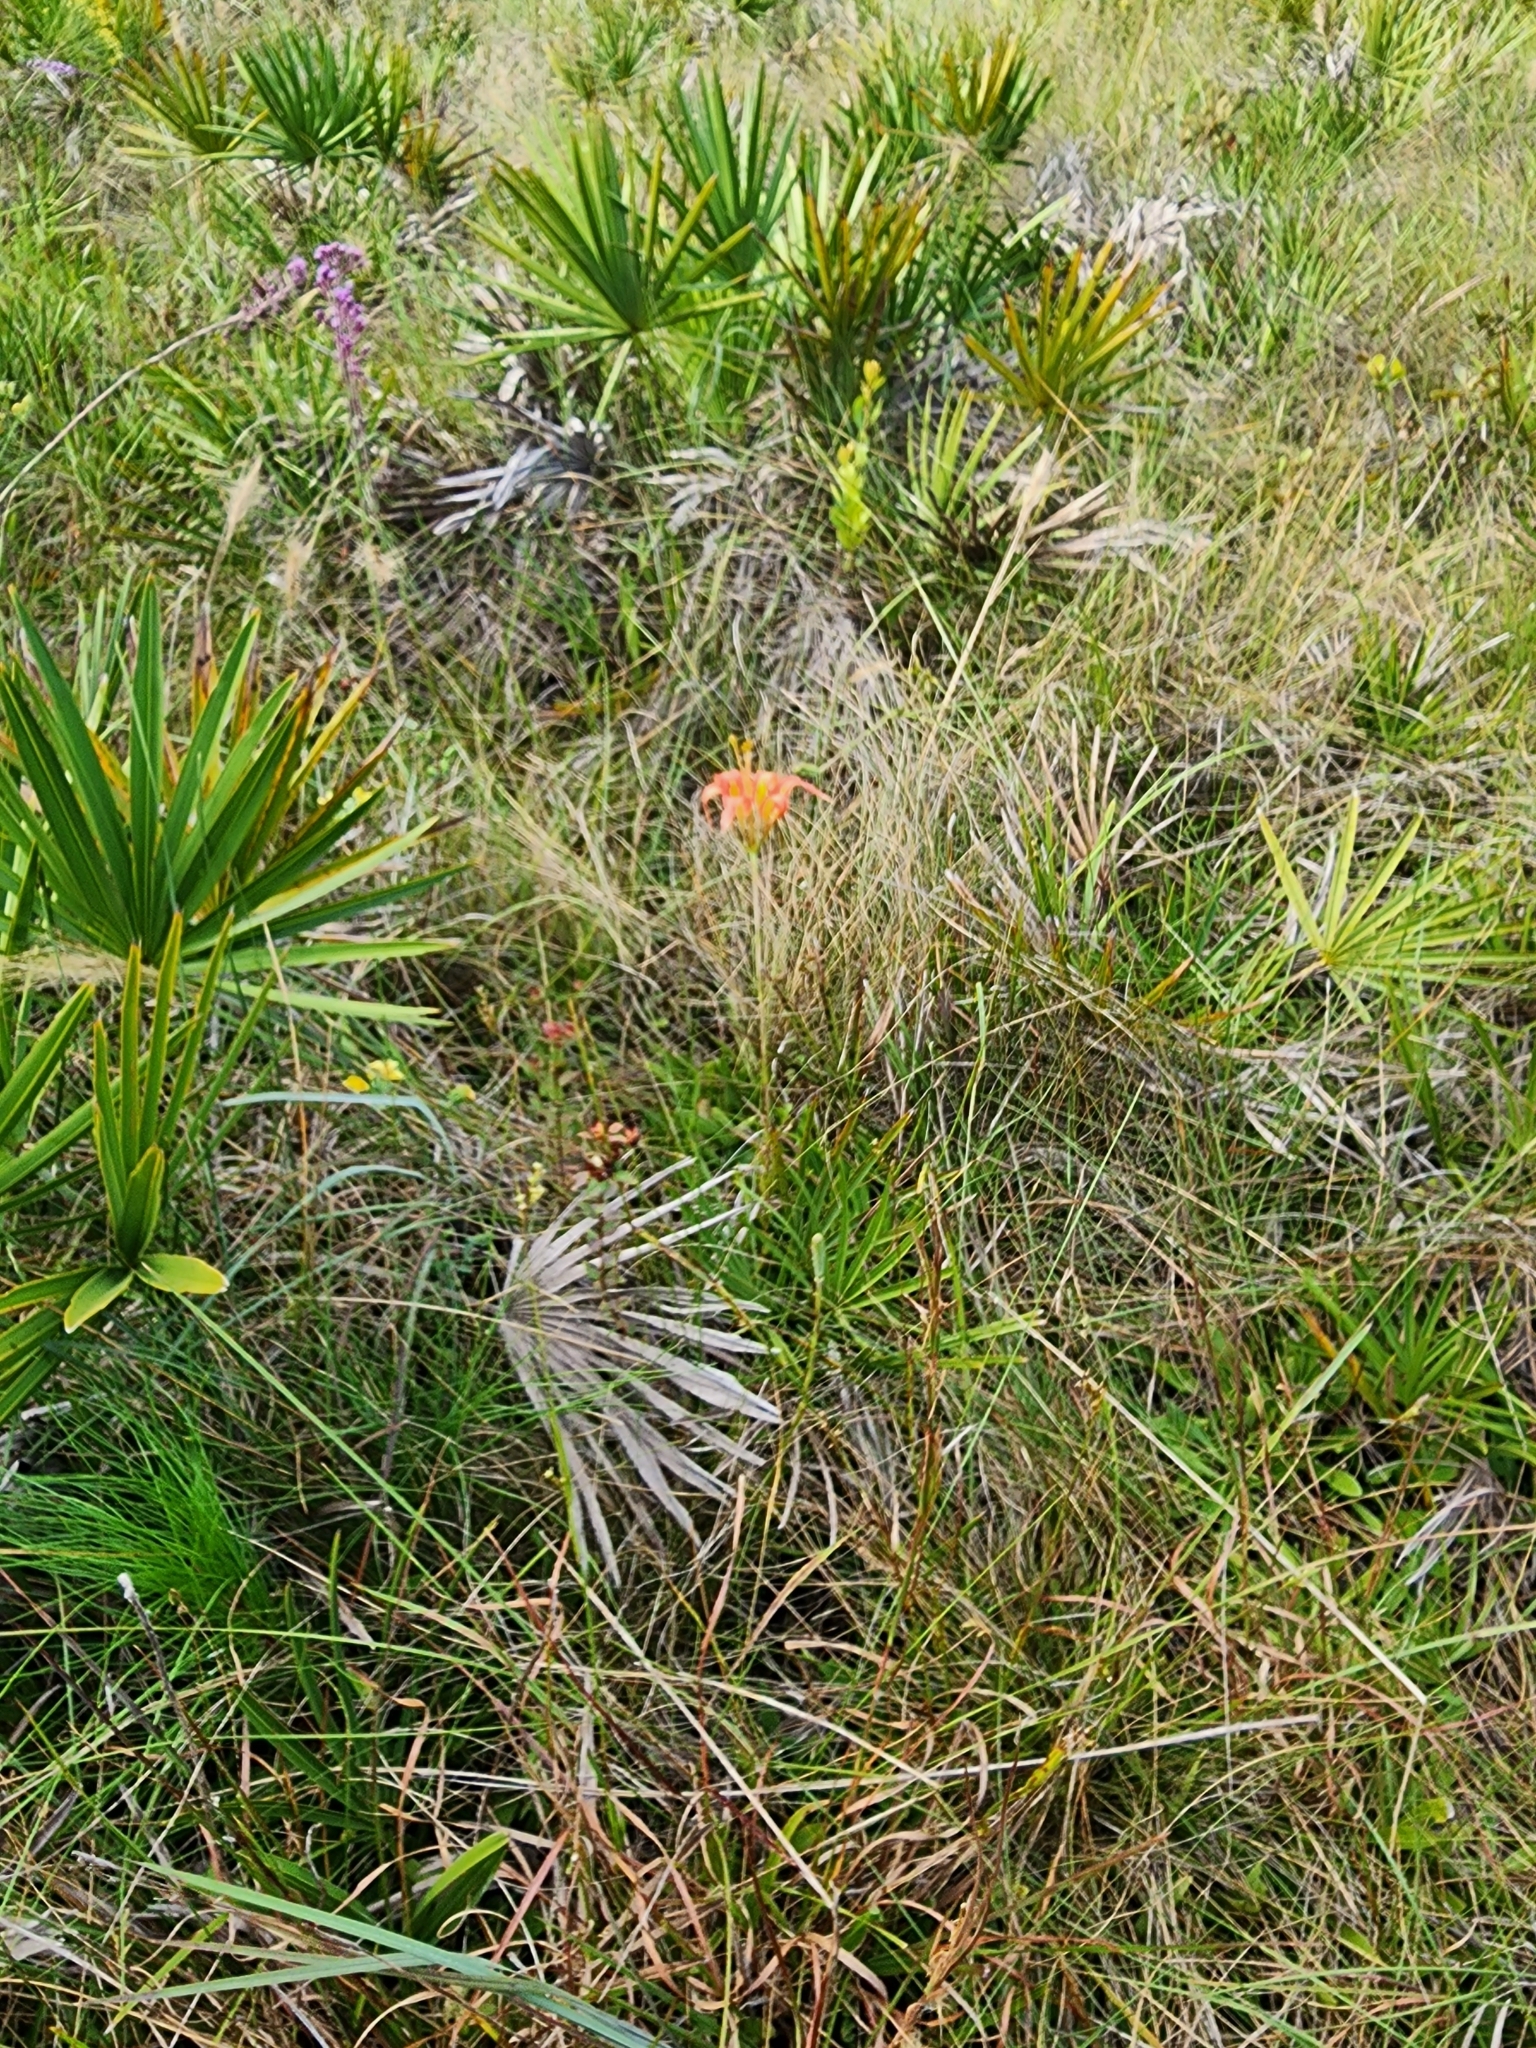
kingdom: Plantae
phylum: Tracheophyta
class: Liliopsida
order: Liliales
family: Liliaceae
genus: Lilium
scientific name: Lilium catesbaei
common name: Catesby's lily
